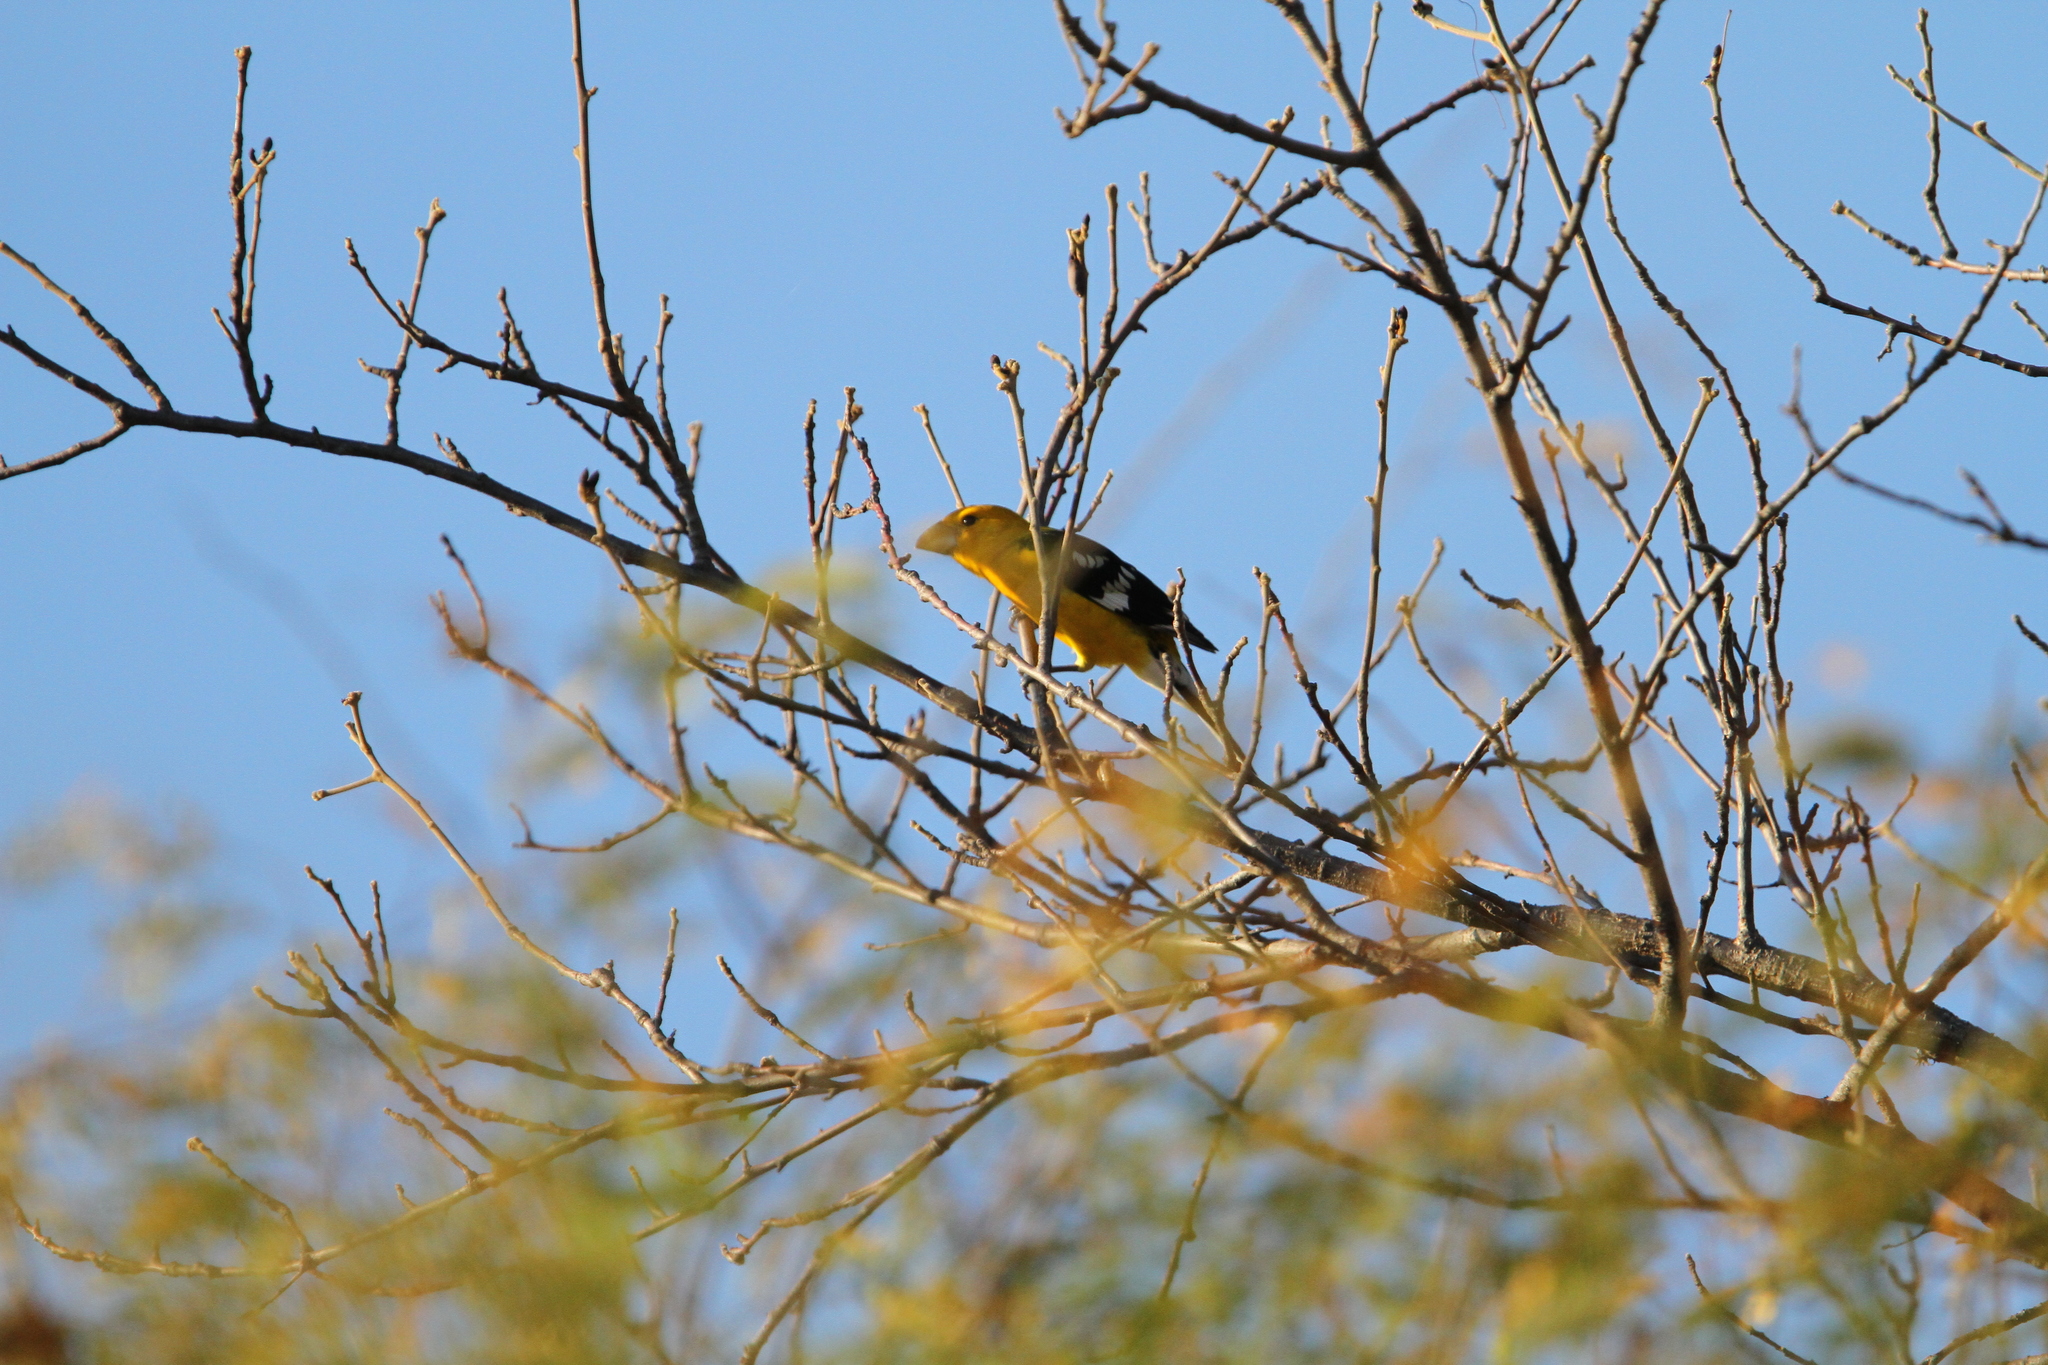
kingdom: Animalia
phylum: Chordata
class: Aves
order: Passeriformes
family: Cardinalidae
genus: Pheucticus
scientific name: Pheucticus chrysopeplus
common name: Yellow grosbeak
